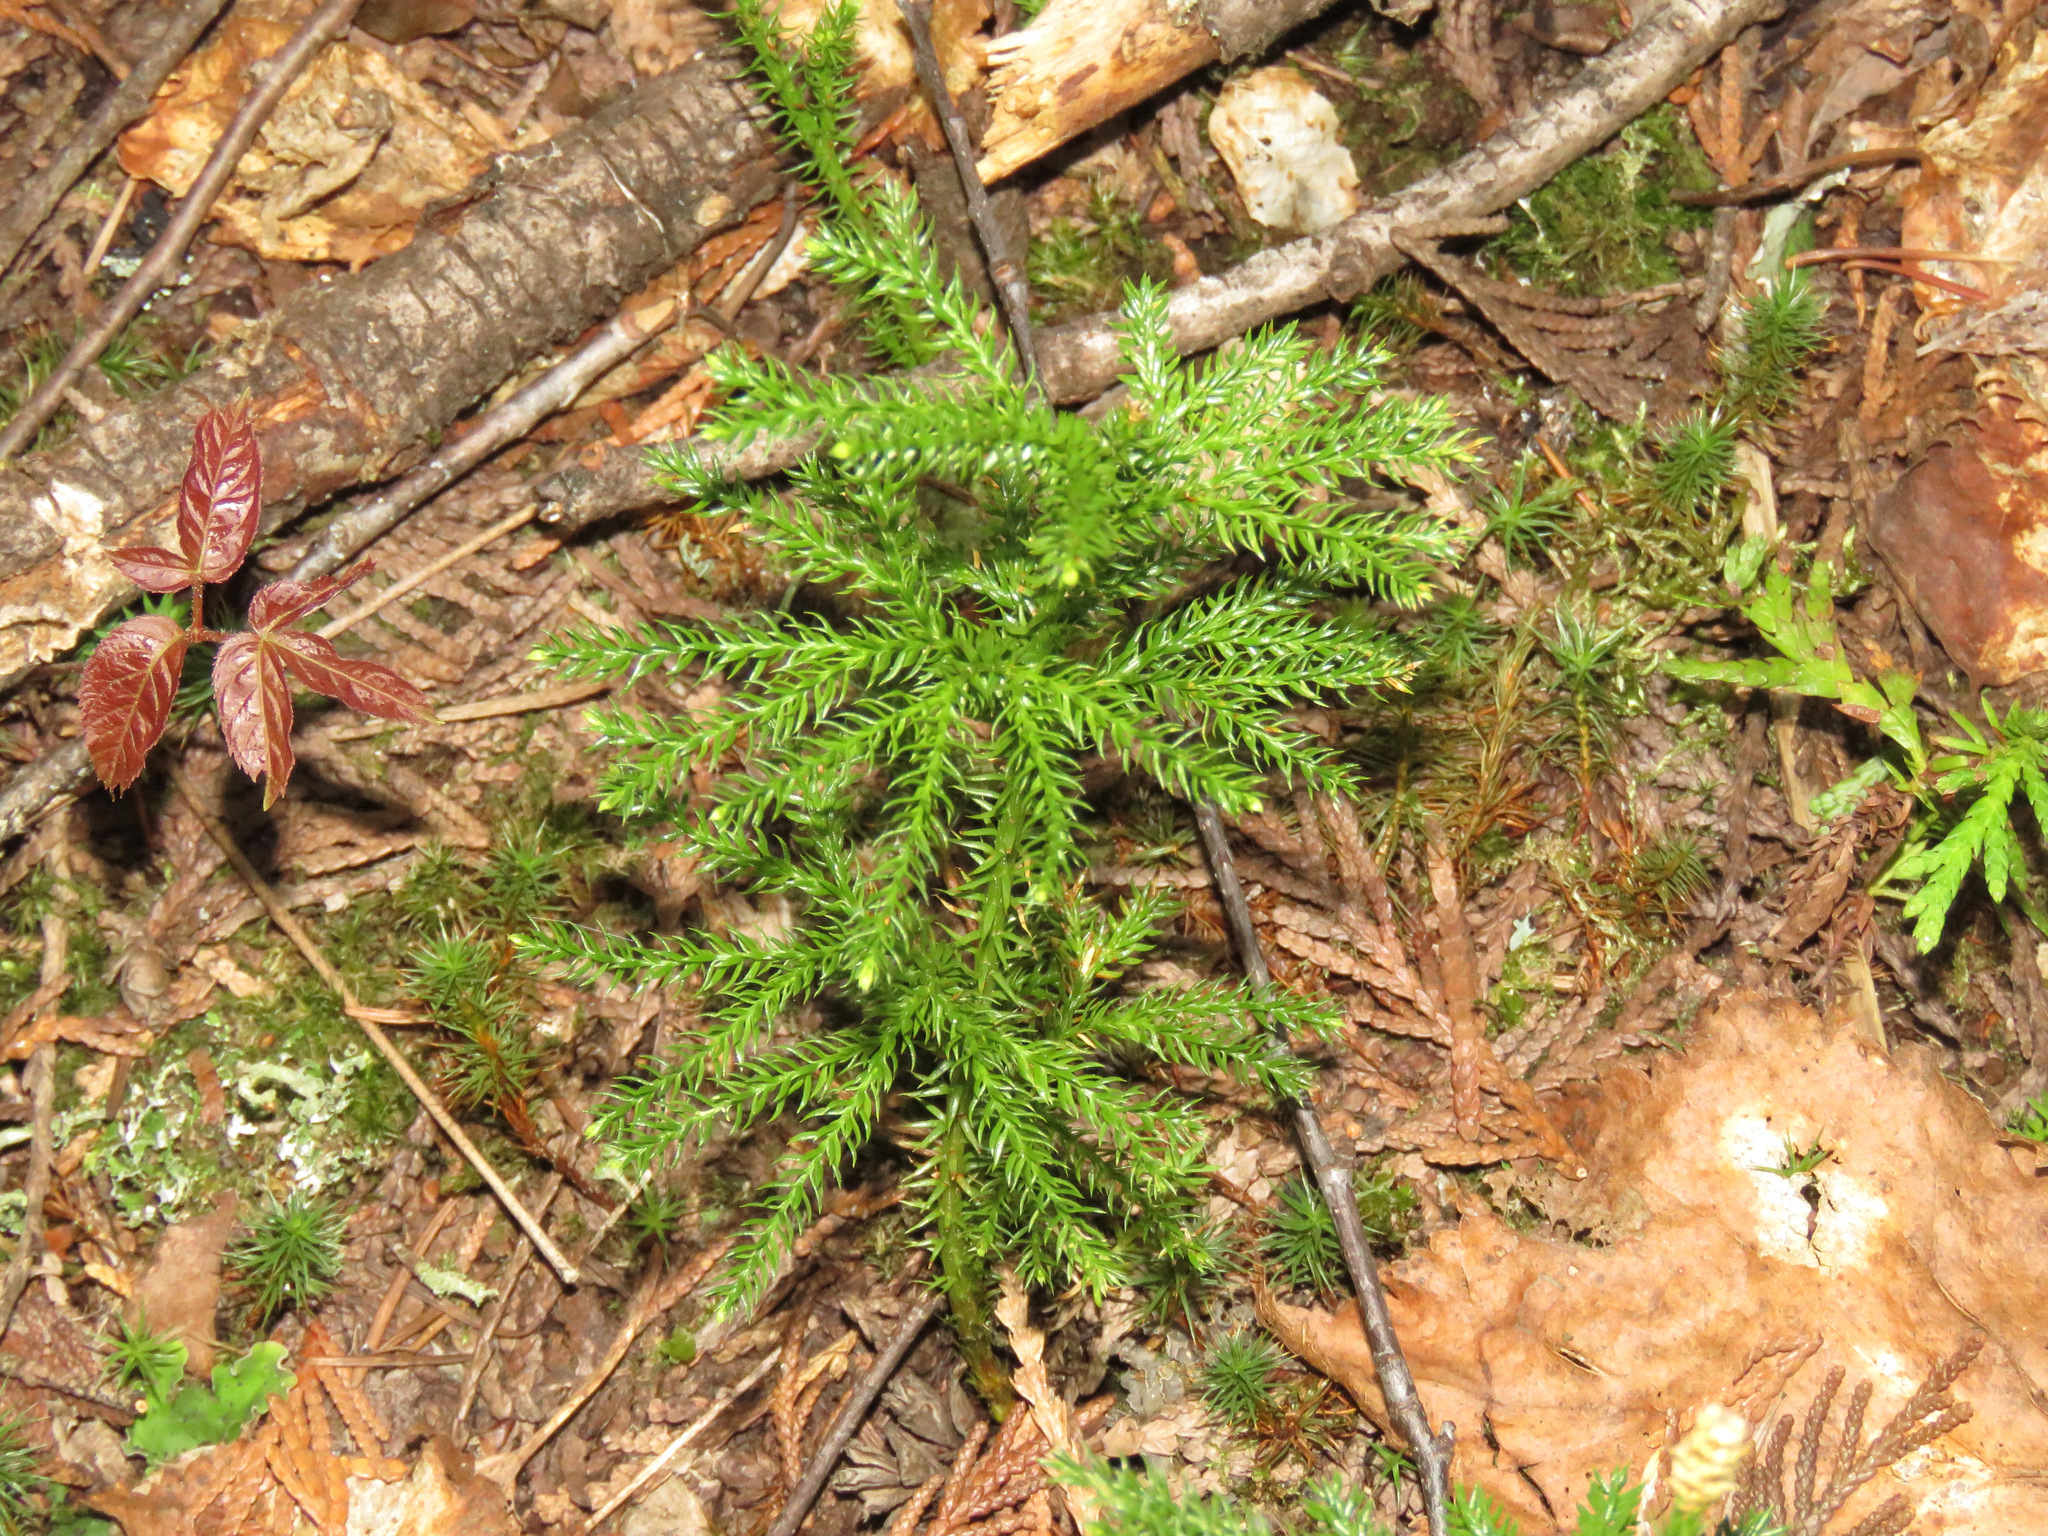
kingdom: Plantae
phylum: Tracheophyta
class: Lycopodiopsida
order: Lycopodiales
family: Lycopodiaceae
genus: Dendrolycopodium
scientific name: Dendrolycopodium dendroideum
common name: Northern tree-clubmoss
